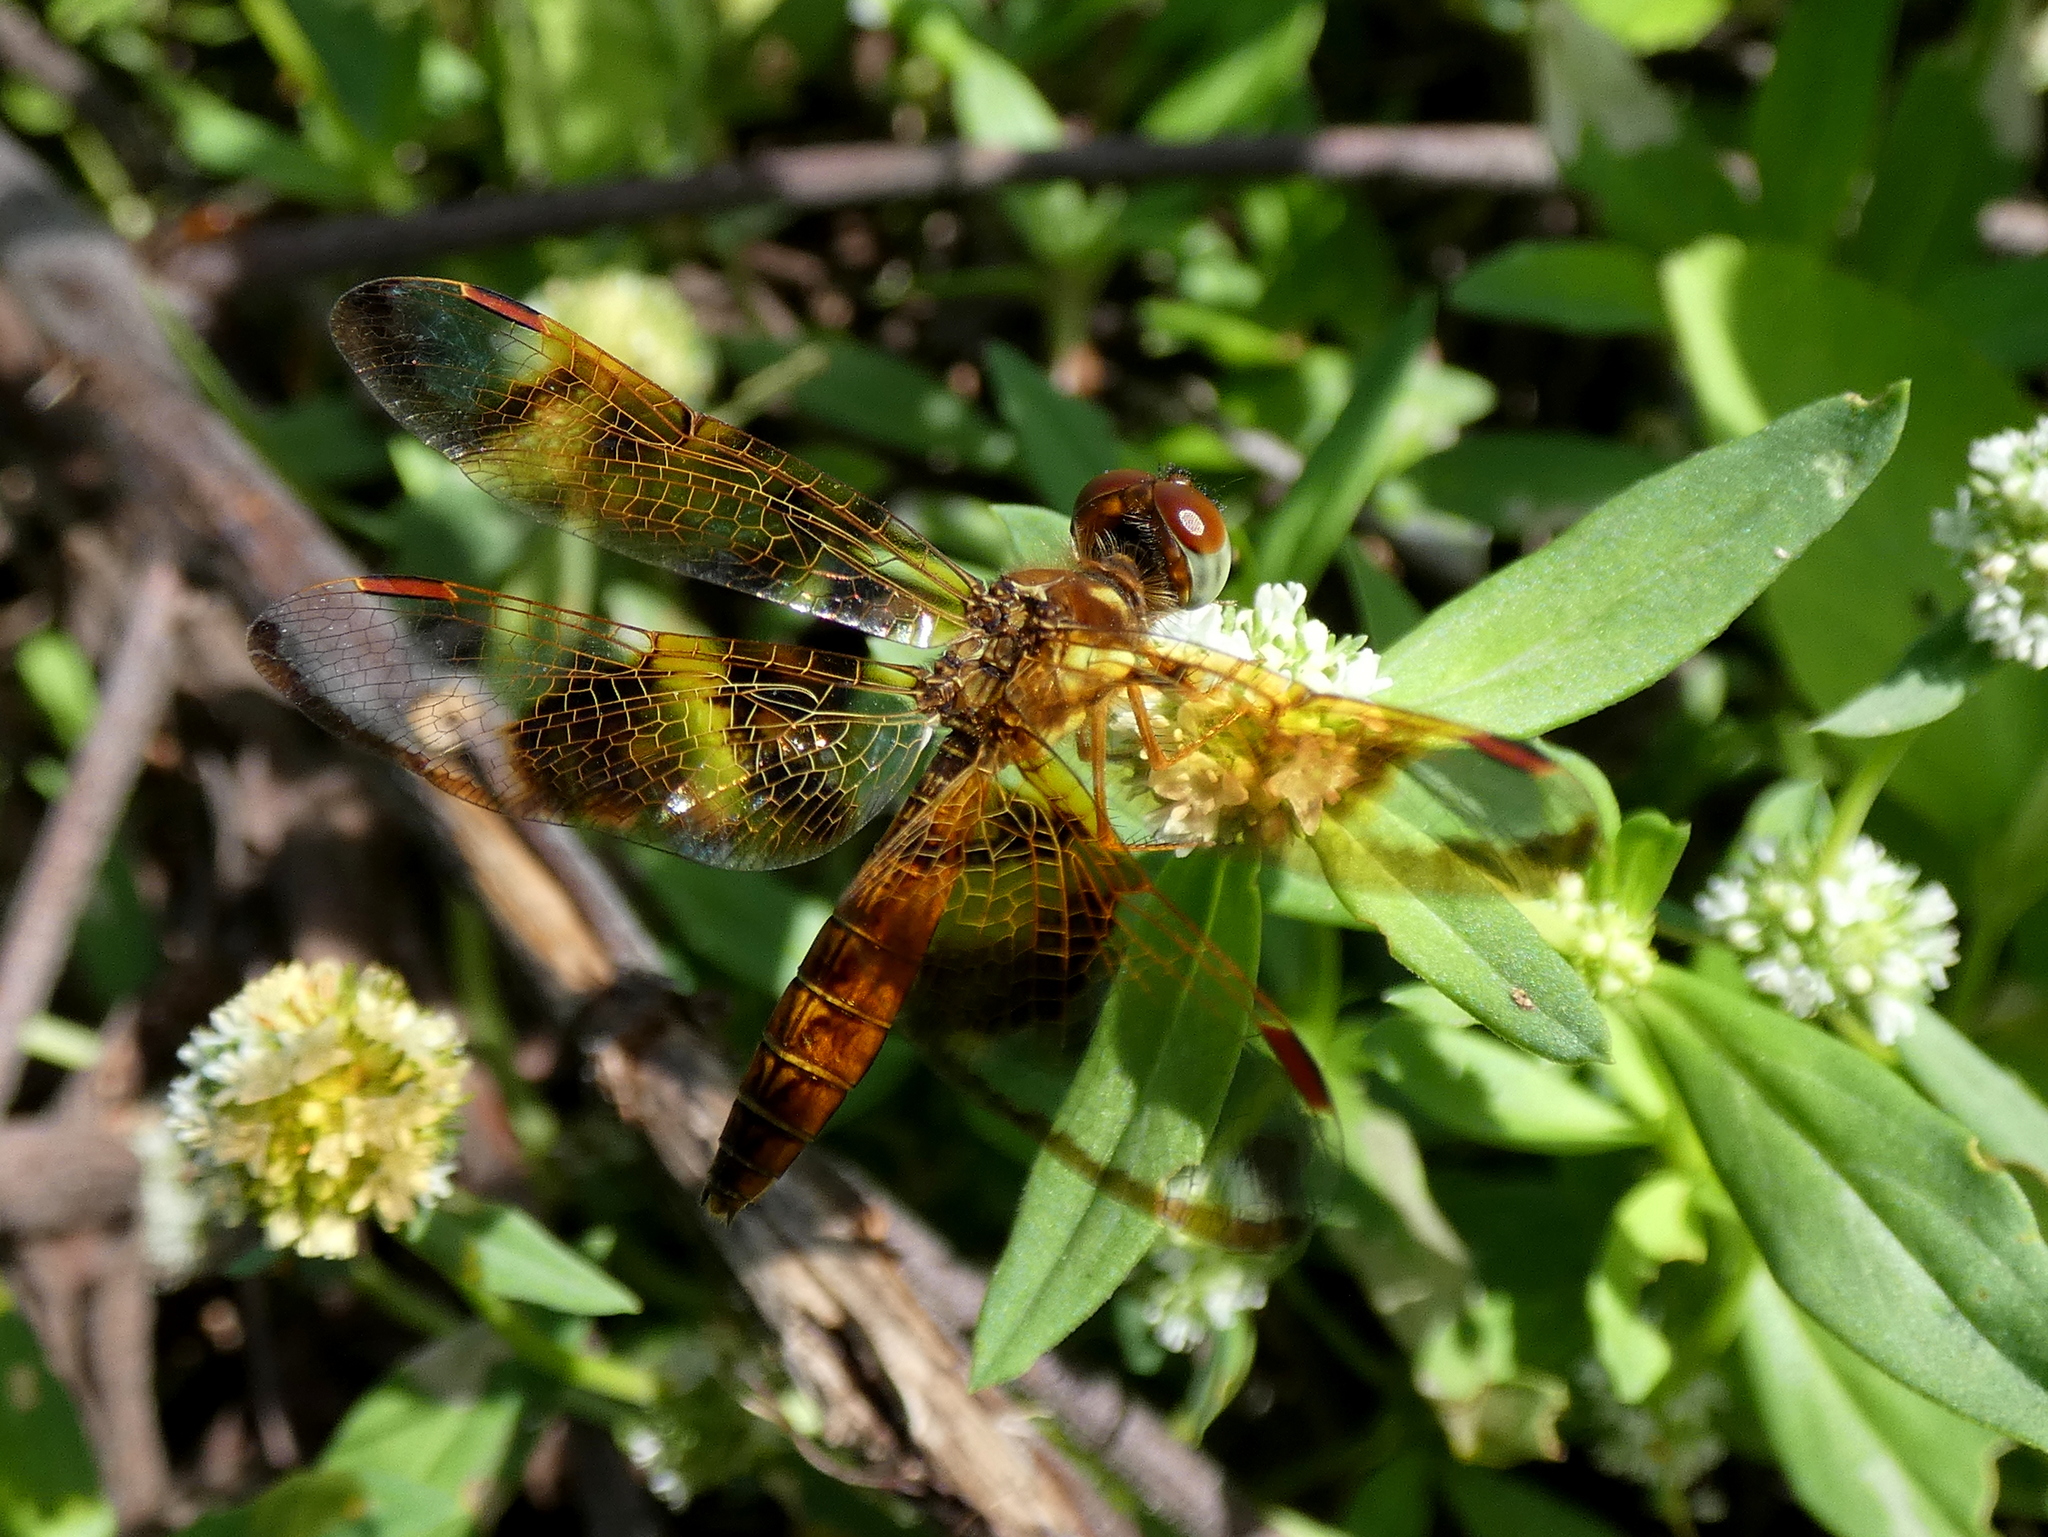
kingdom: Animalia
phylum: Arthropoda
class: Insecta
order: Odonata
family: Libellulidae
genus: Perithemis
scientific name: Perithemis tenera
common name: Eastern amberwing
